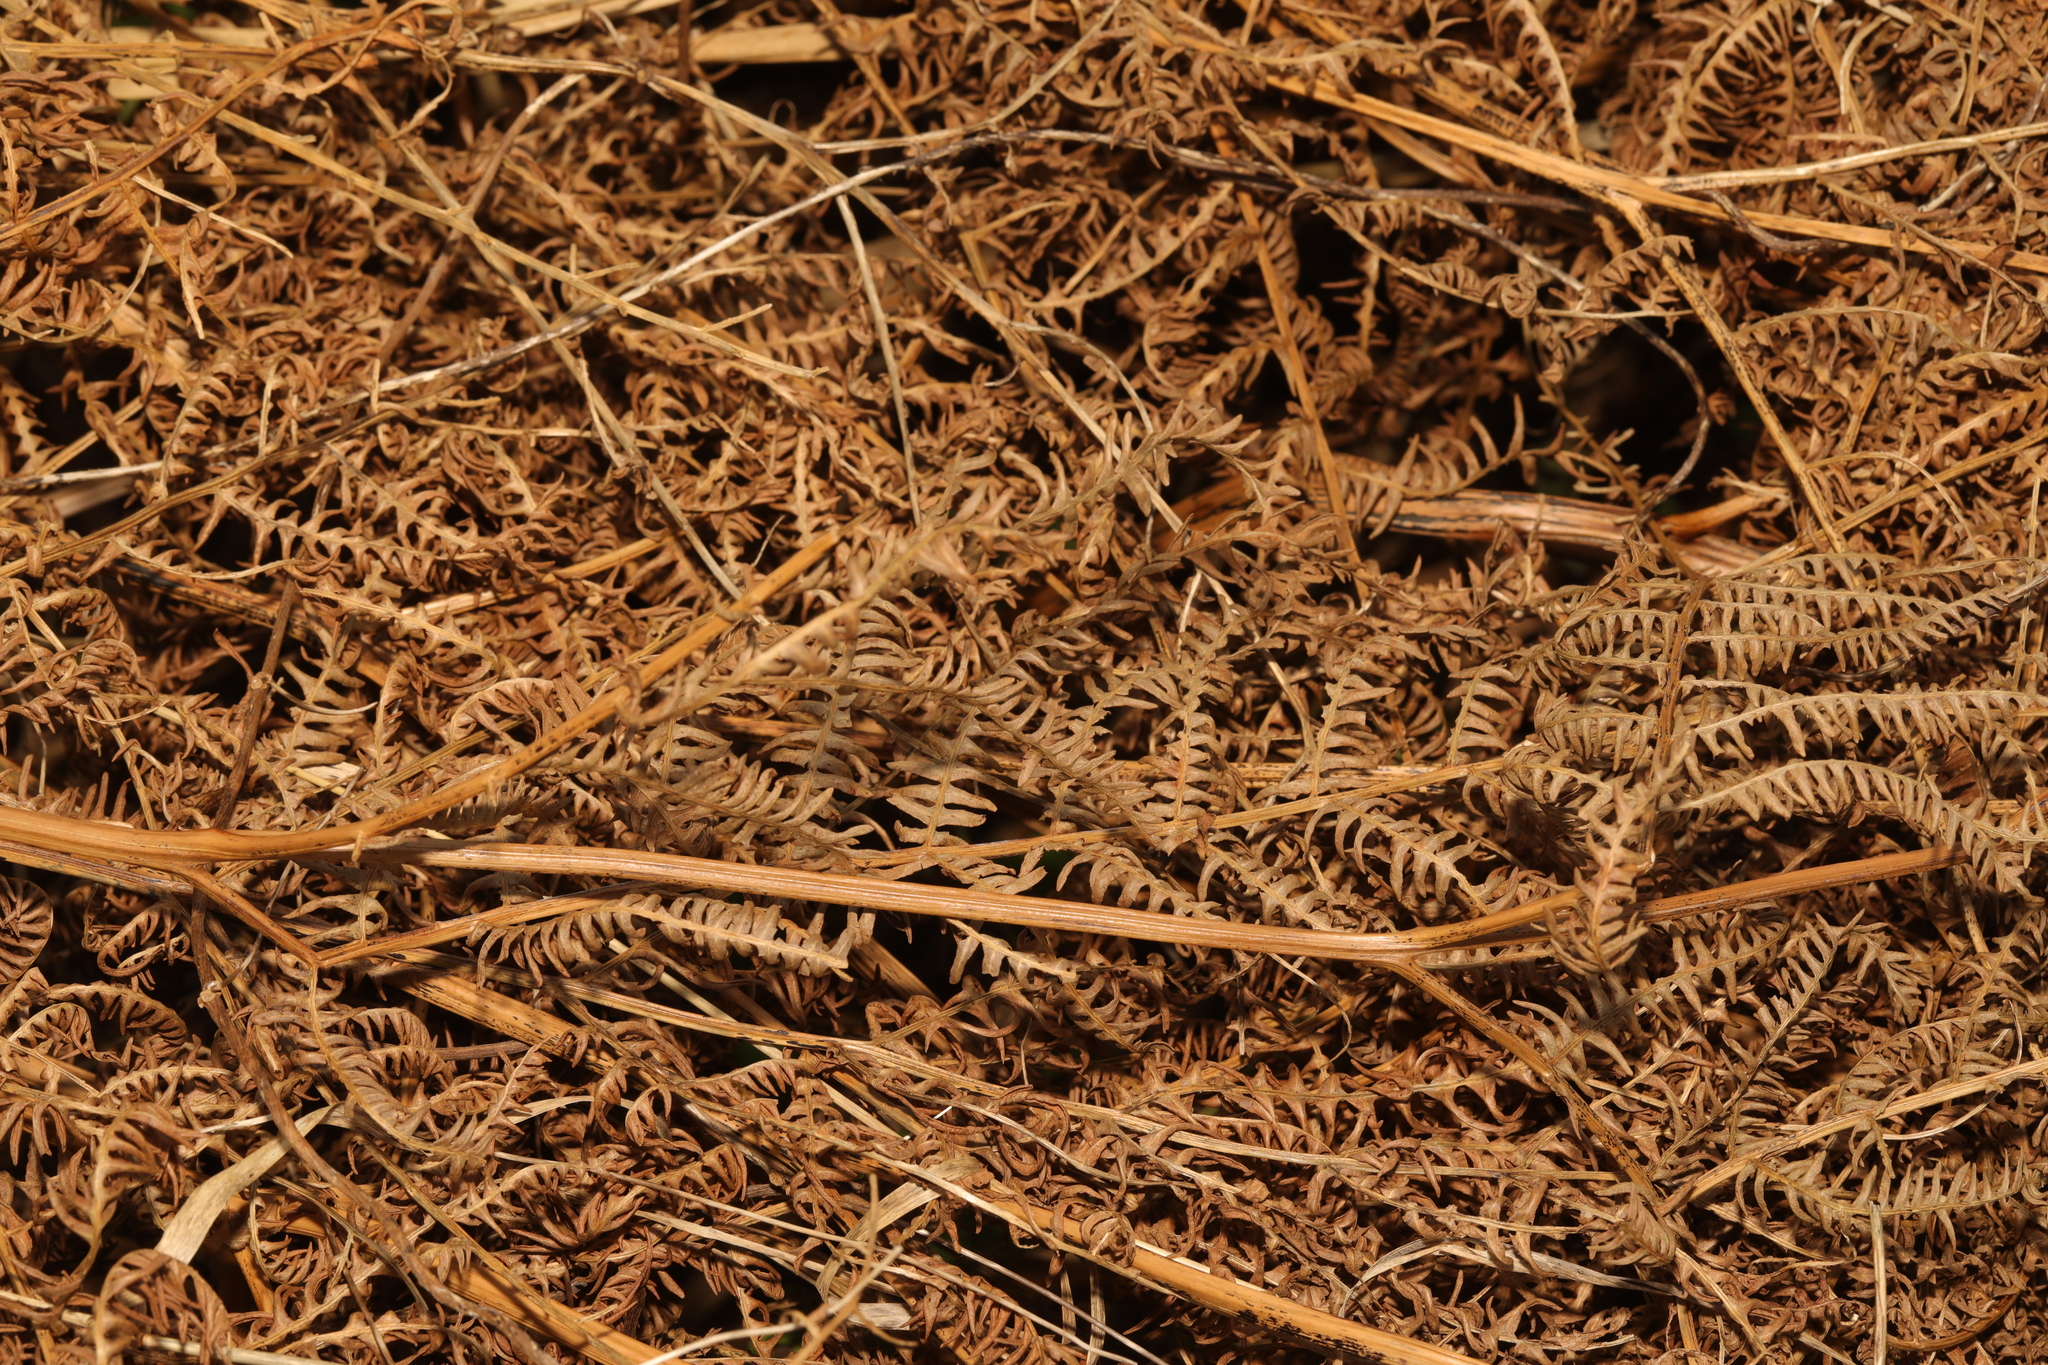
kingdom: Plantae
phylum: Tracheophyta
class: Polypodiopsida
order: Polypodiales
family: Dennstaedtiaceae
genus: Pteridium
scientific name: Pteridium aquilinum
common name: Bracken
